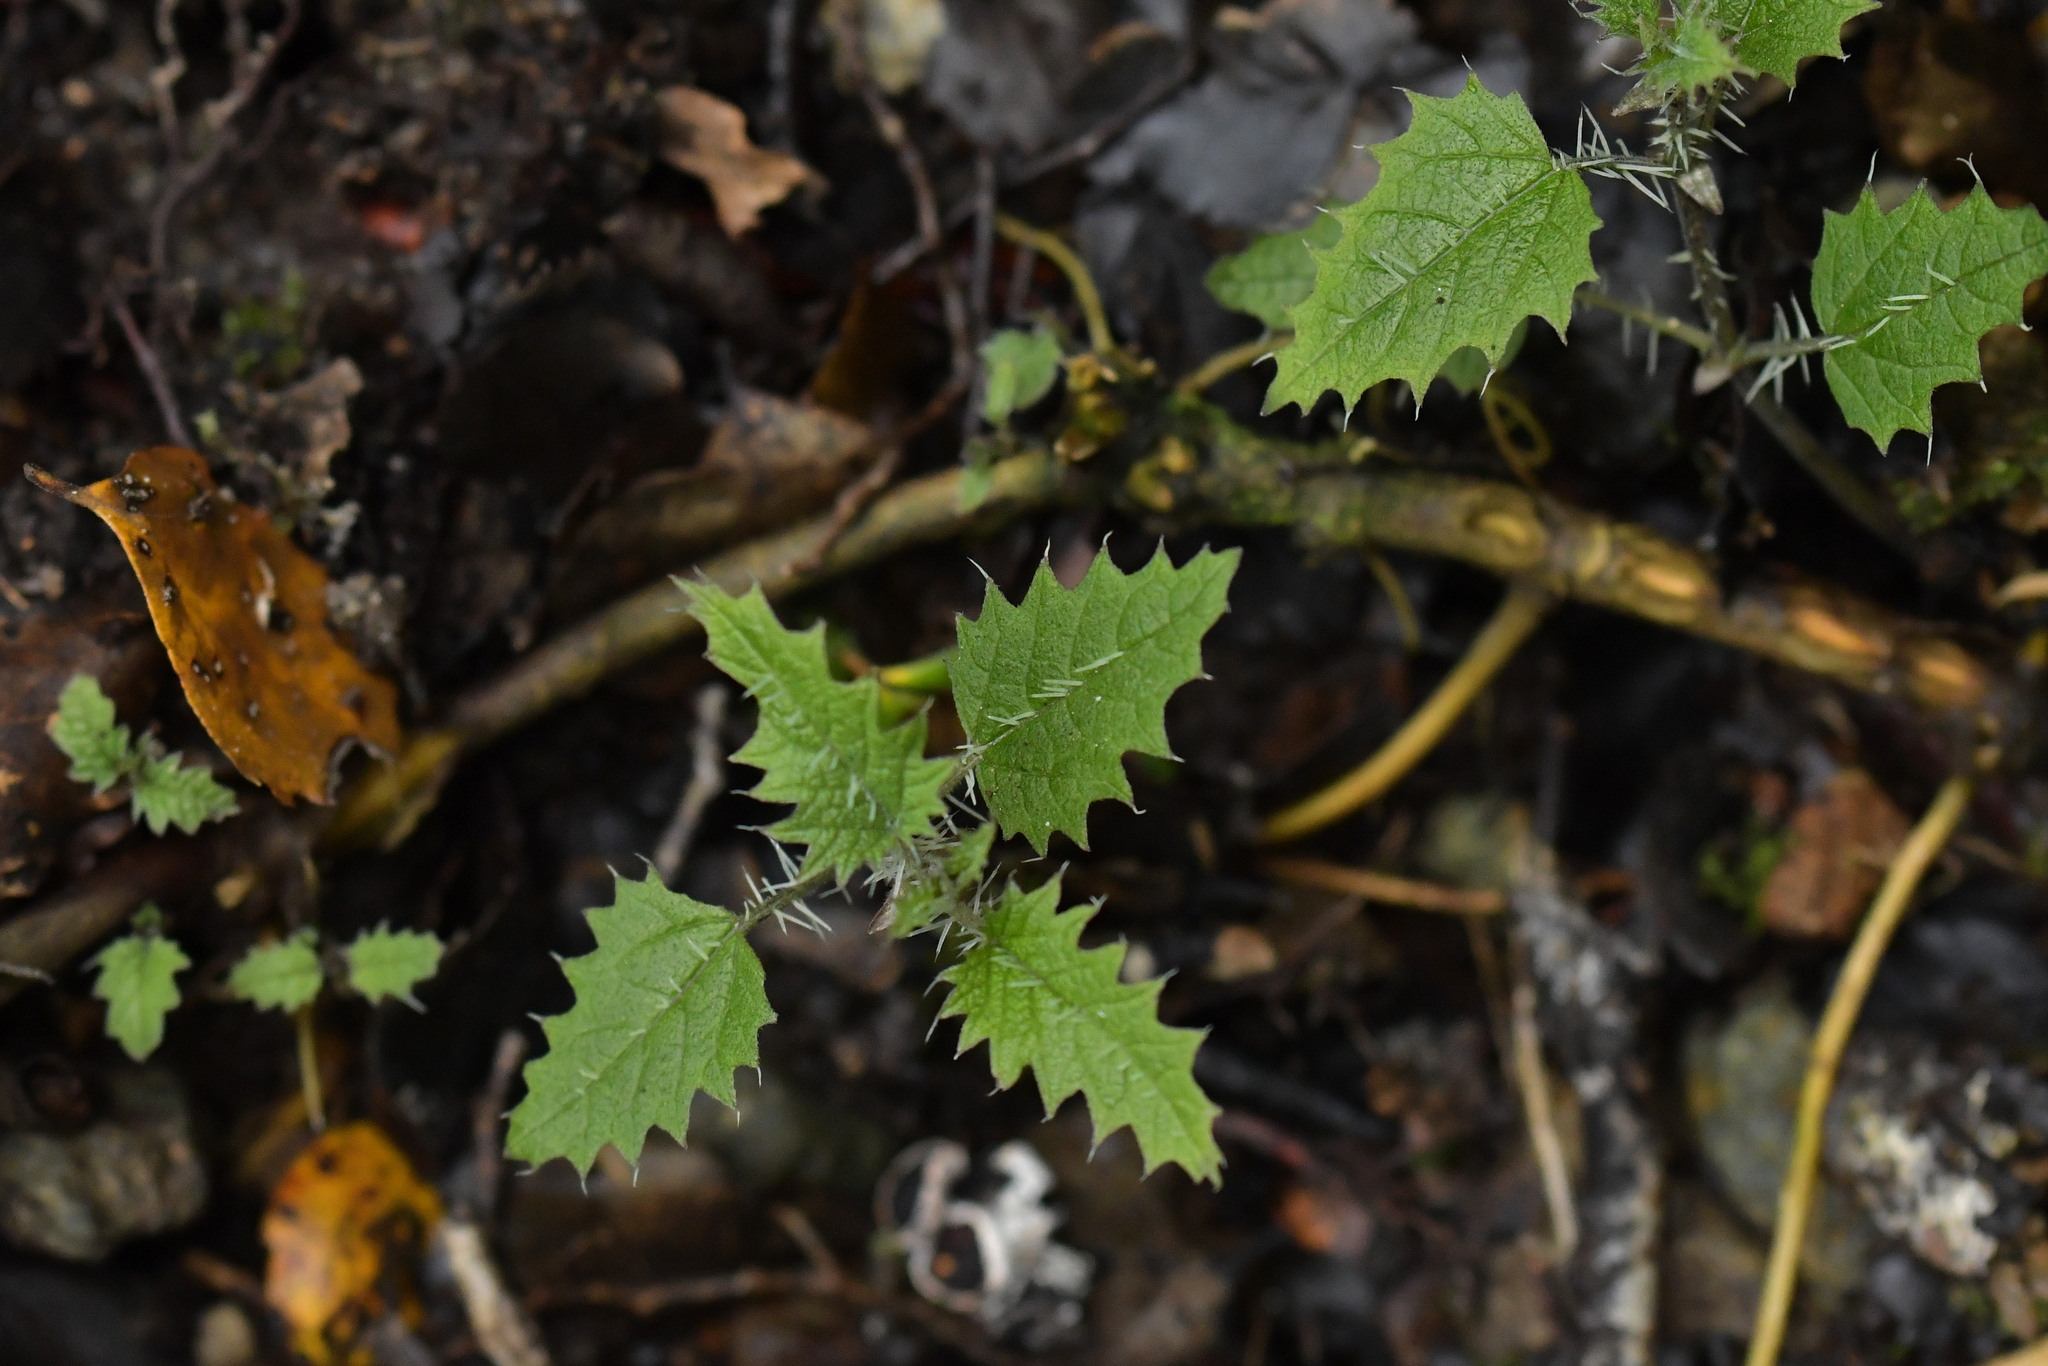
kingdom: Plantae
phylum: Tracheophyta
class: Magnoliopsida
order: Rosales
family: Urticaceae
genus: Urtica
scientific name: Urtica ferox
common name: Tree nettle
